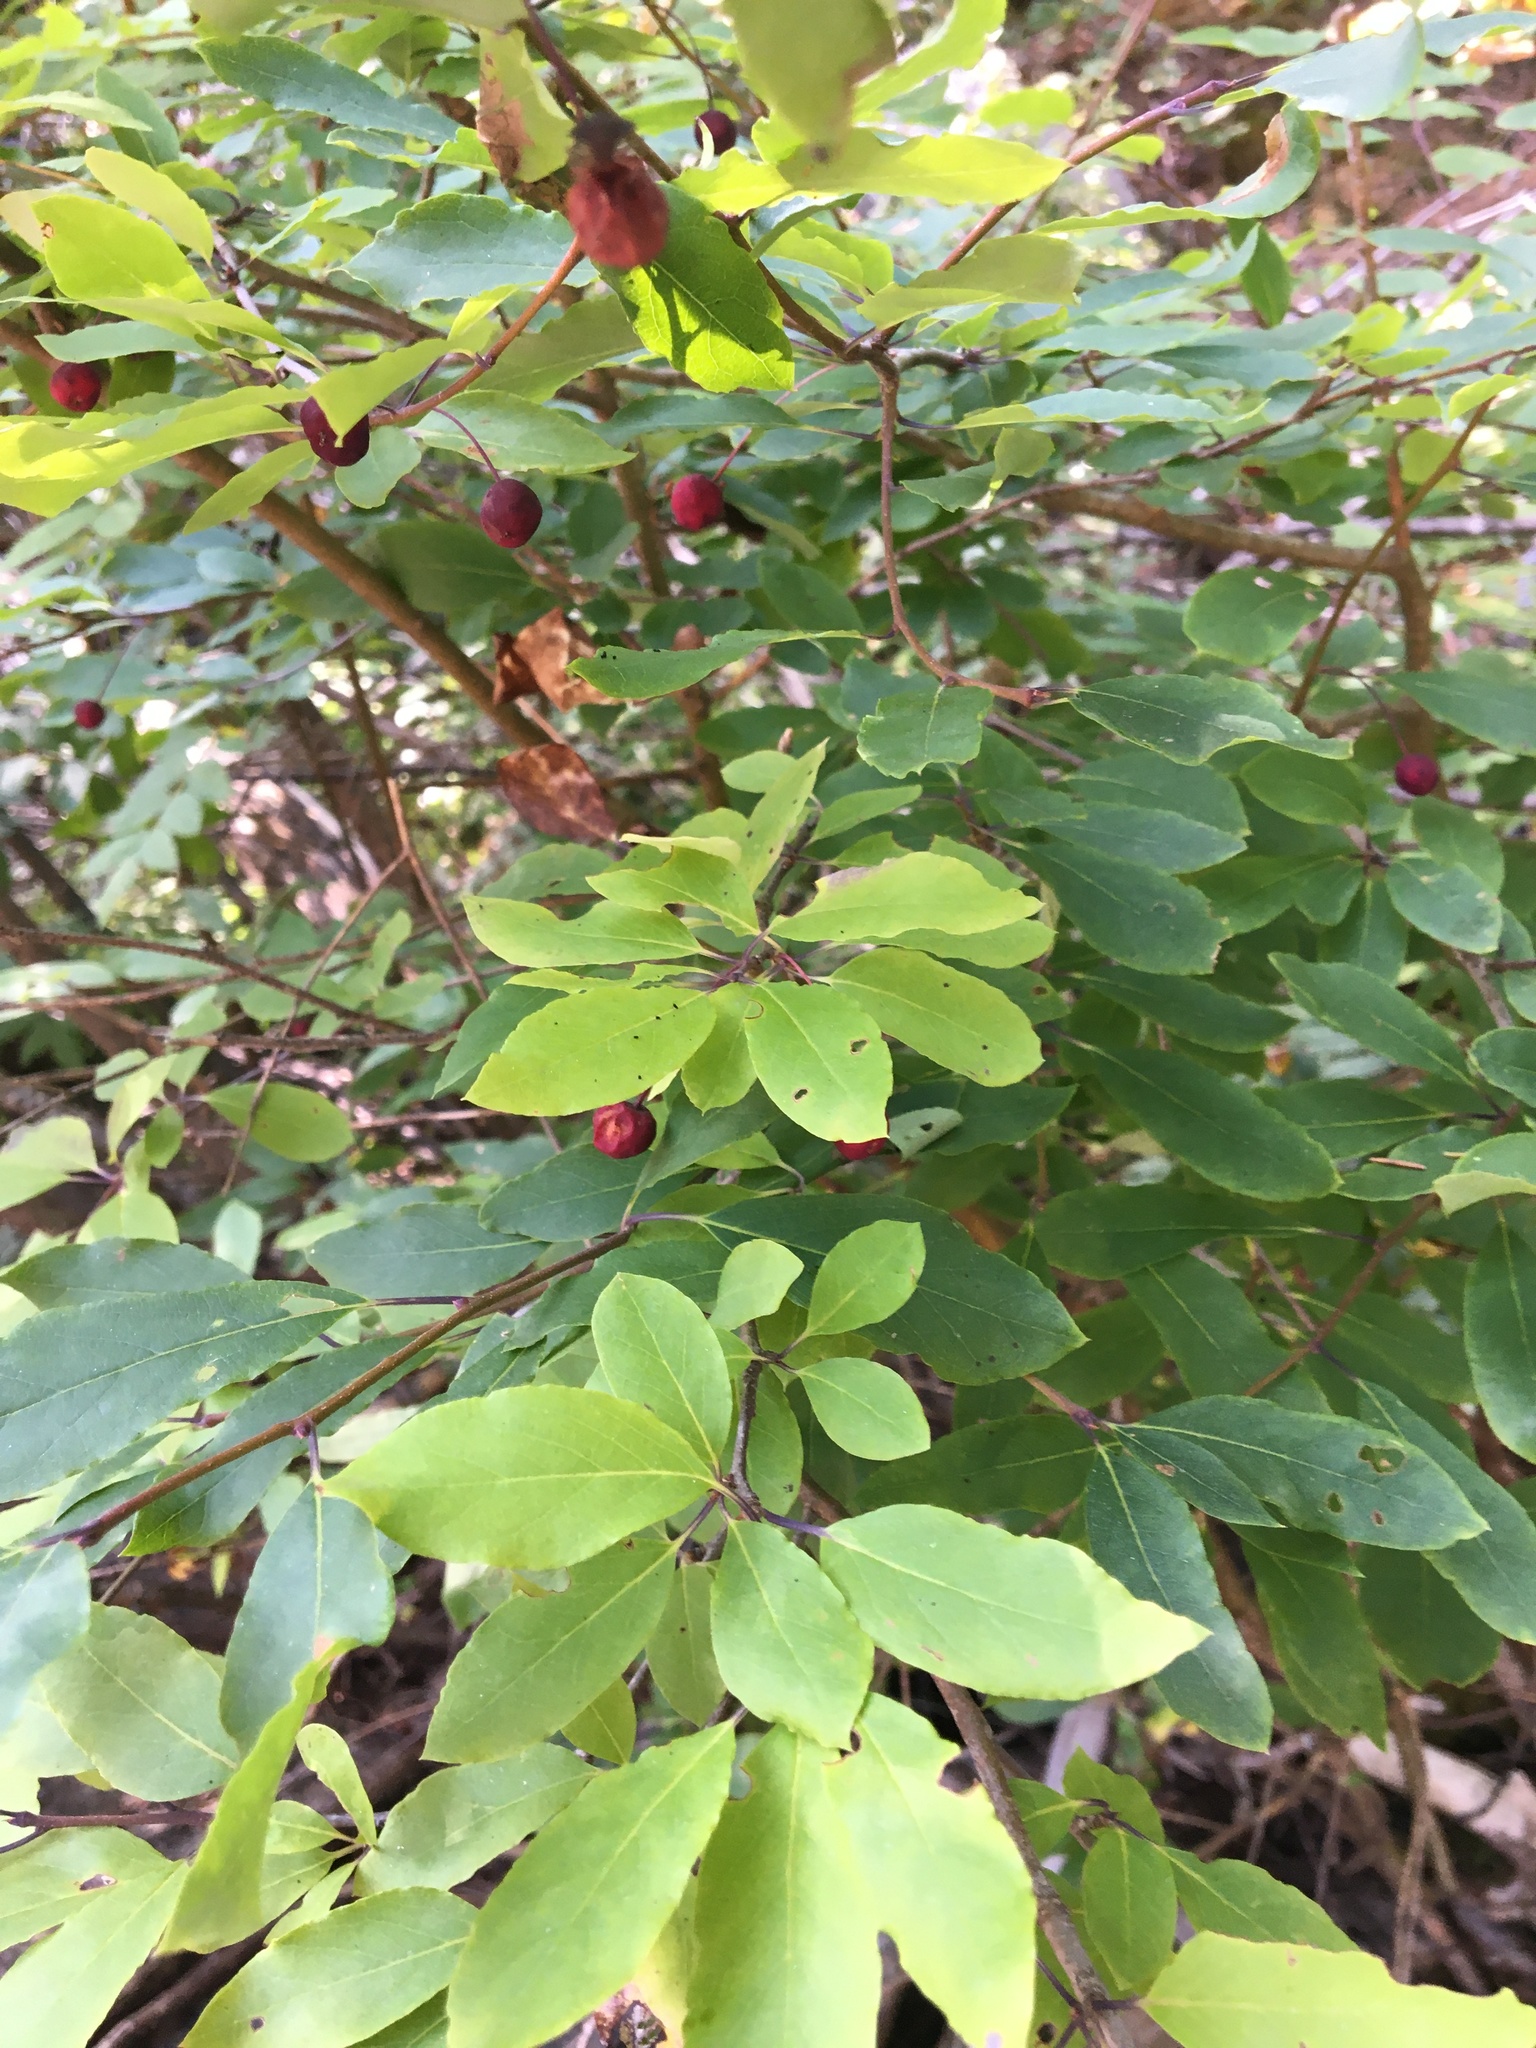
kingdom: Plantae
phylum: Tracheophyta
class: Magnoliopsida
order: Aquifoliales
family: Aquifoliaceae
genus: Ilex
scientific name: Ilex mucronata
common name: Catberry
